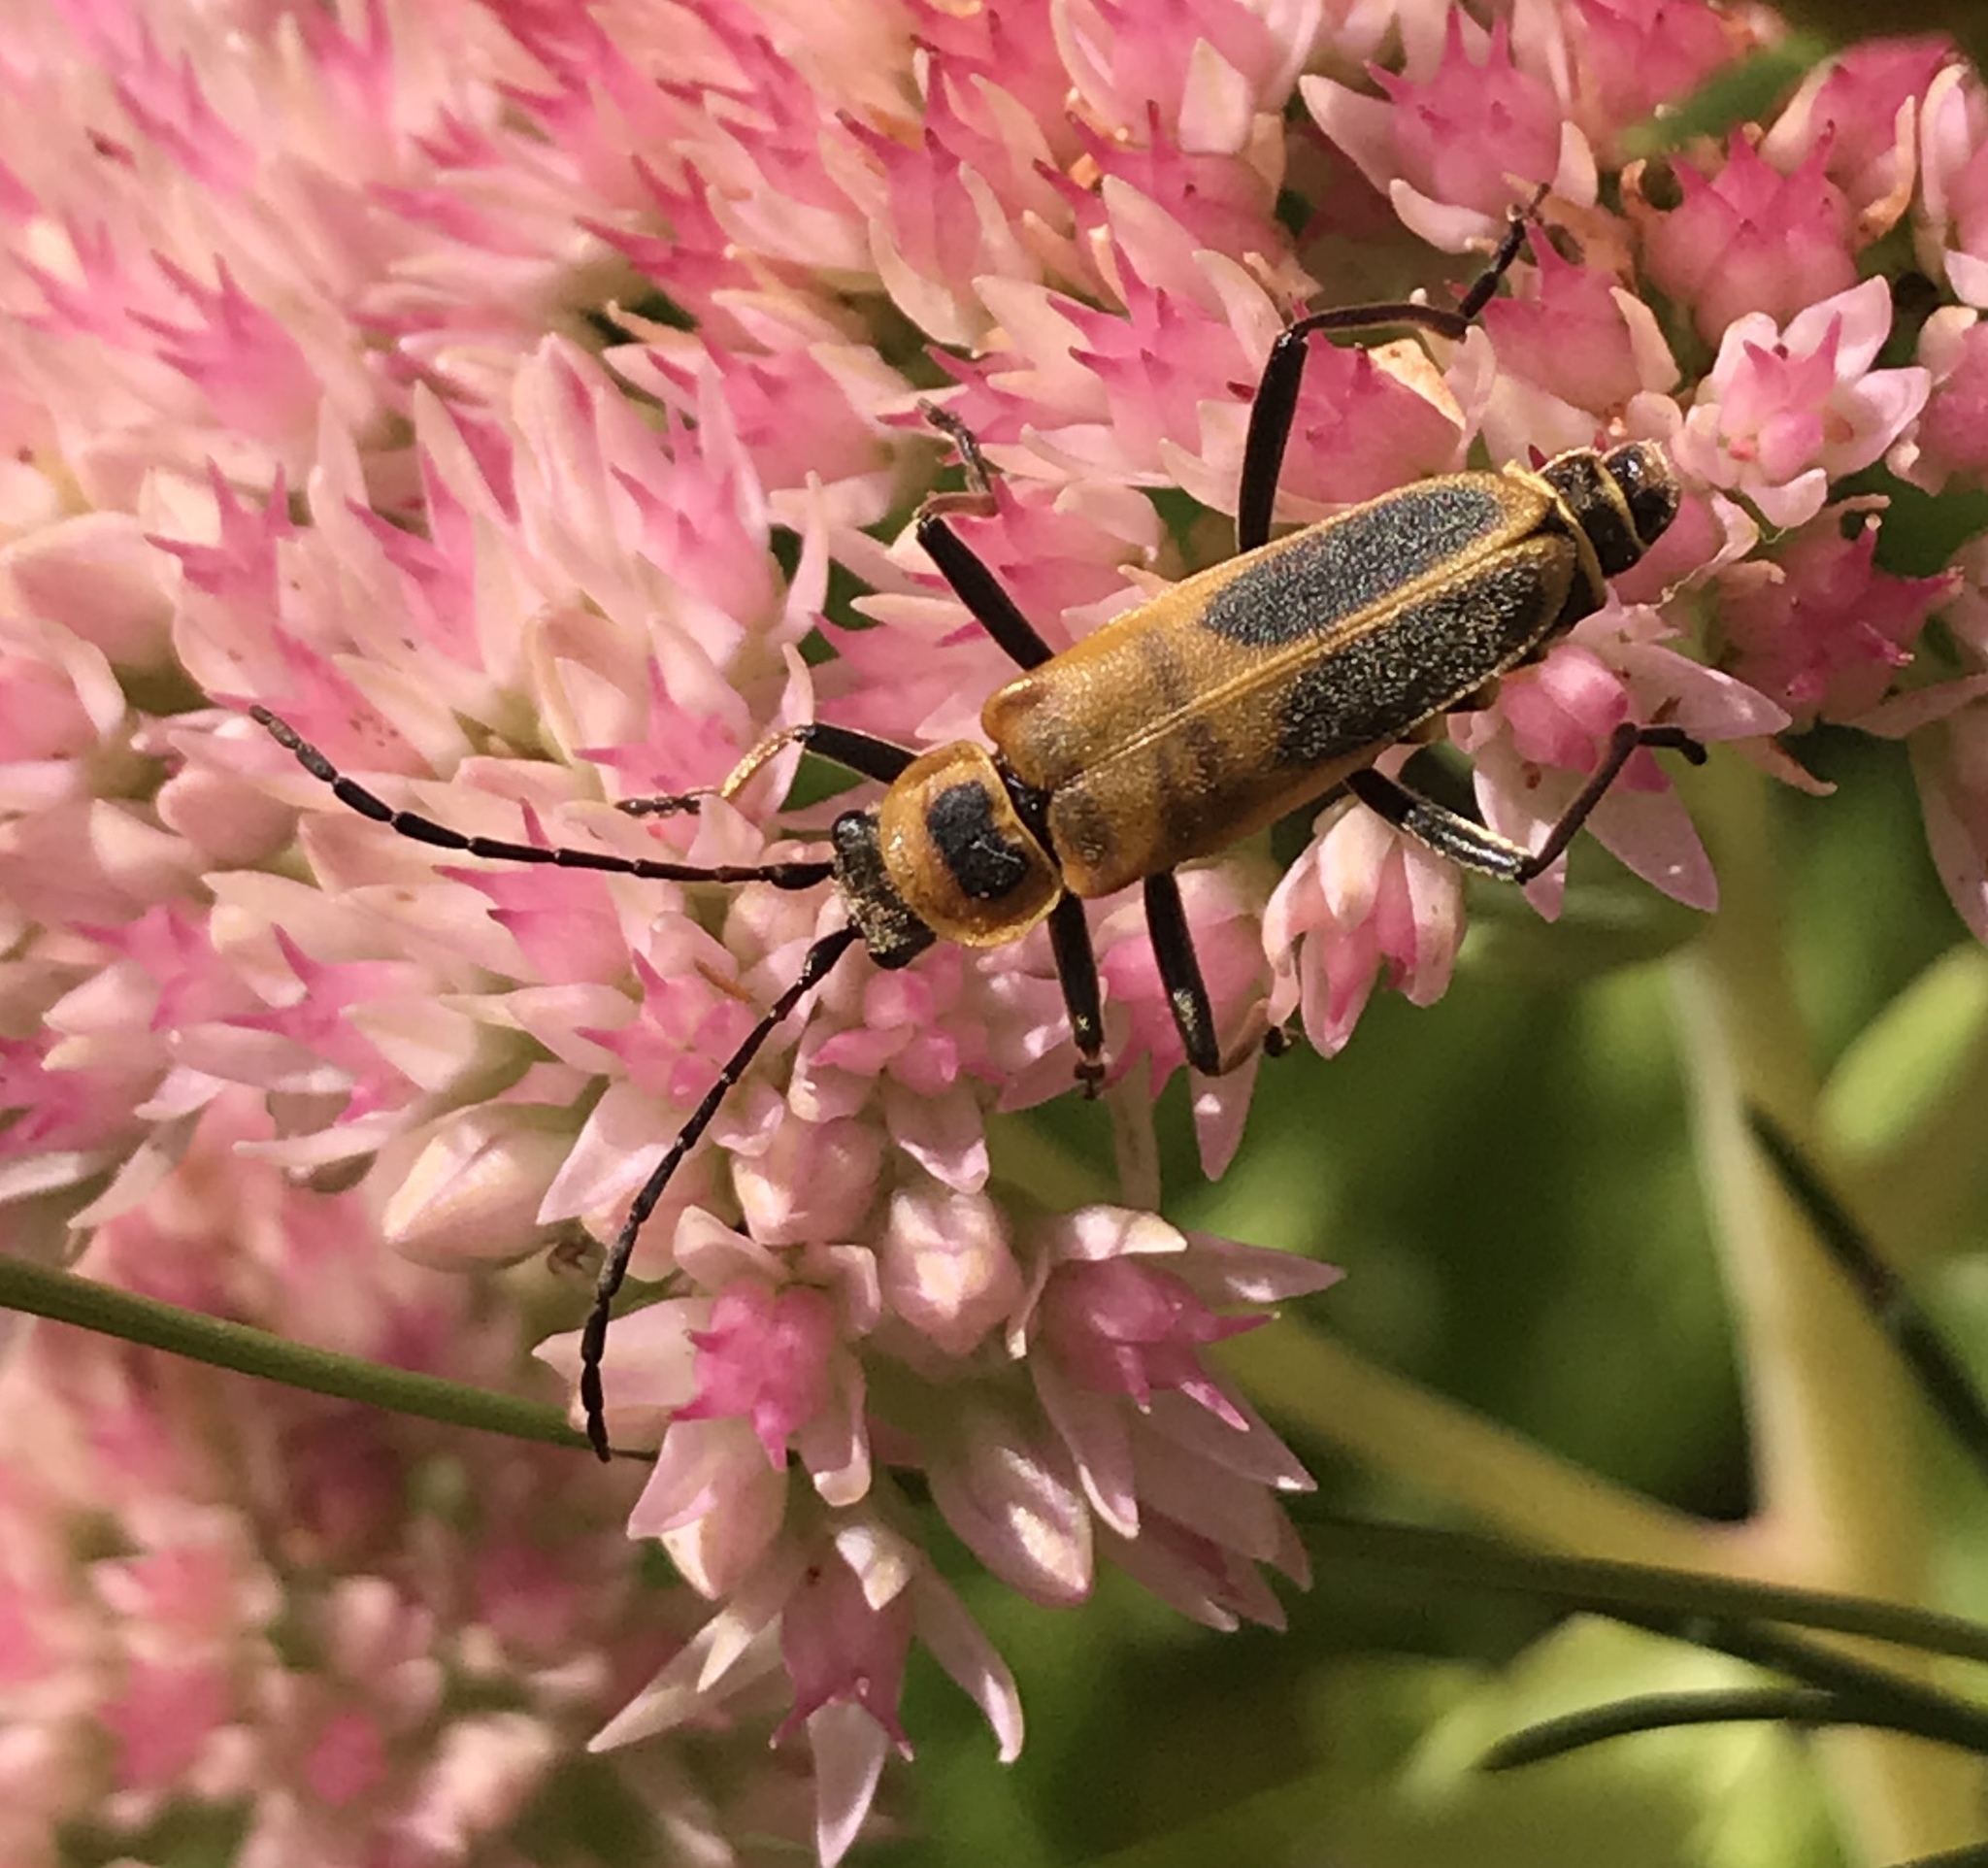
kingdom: Animalia
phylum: Arthropoda
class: Insecta
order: Coleoptera
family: Cantharidae
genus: Chauliognathus
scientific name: Chauliognathus pensylvanicus
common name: Goldenrod soldier beetle
